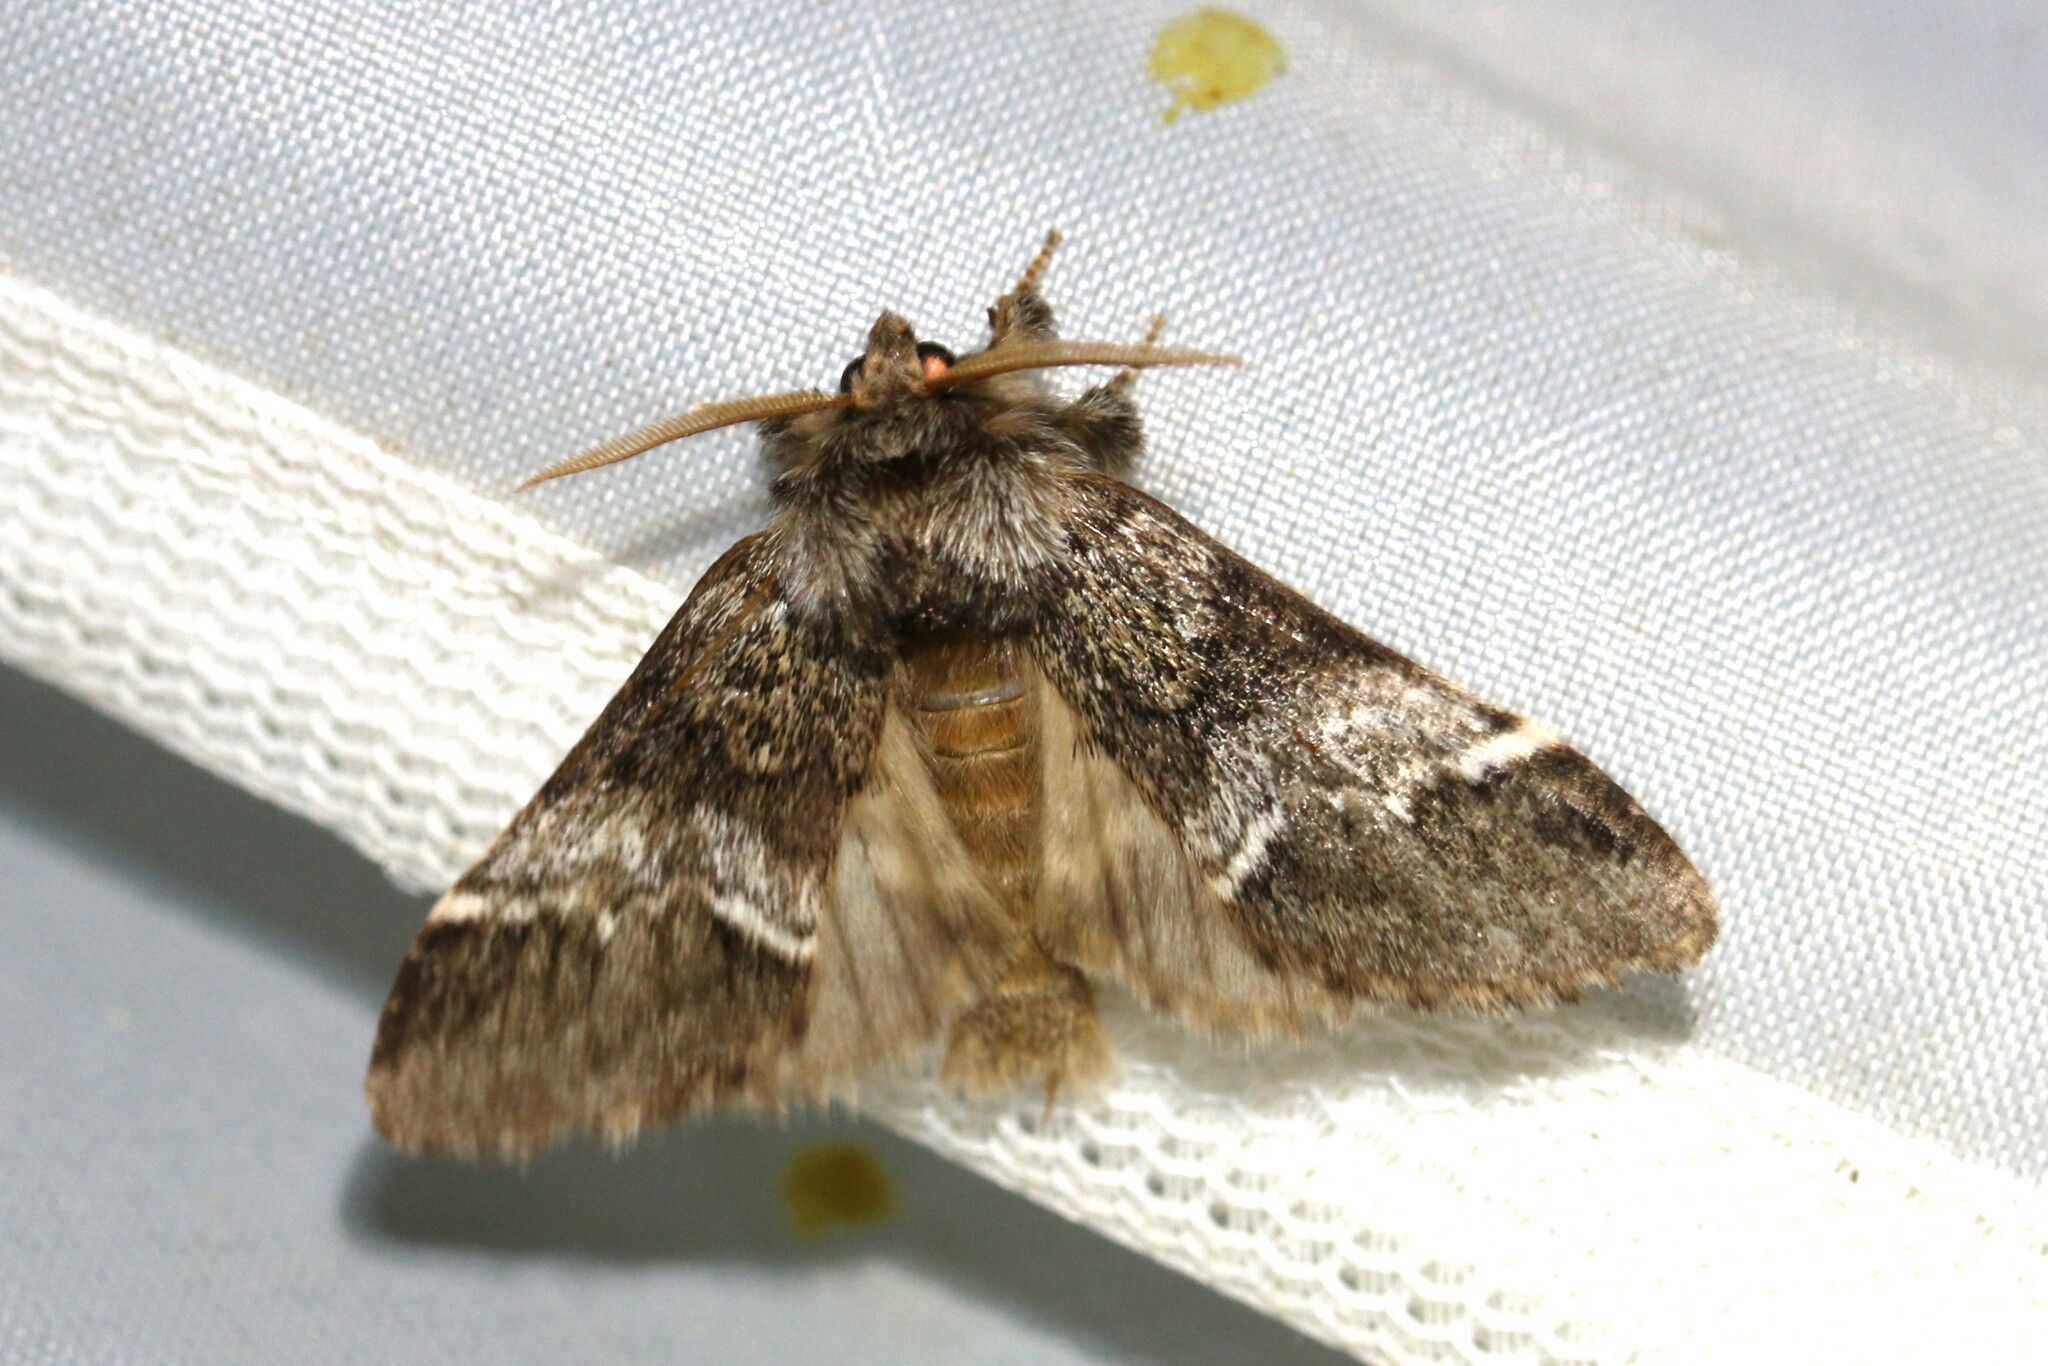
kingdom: Animalia
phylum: Arthropoda
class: Insecta
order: Lepidoptera
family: Notodontidae
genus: Drymonia
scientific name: Drymonia dodonaea
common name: Marbled brown
